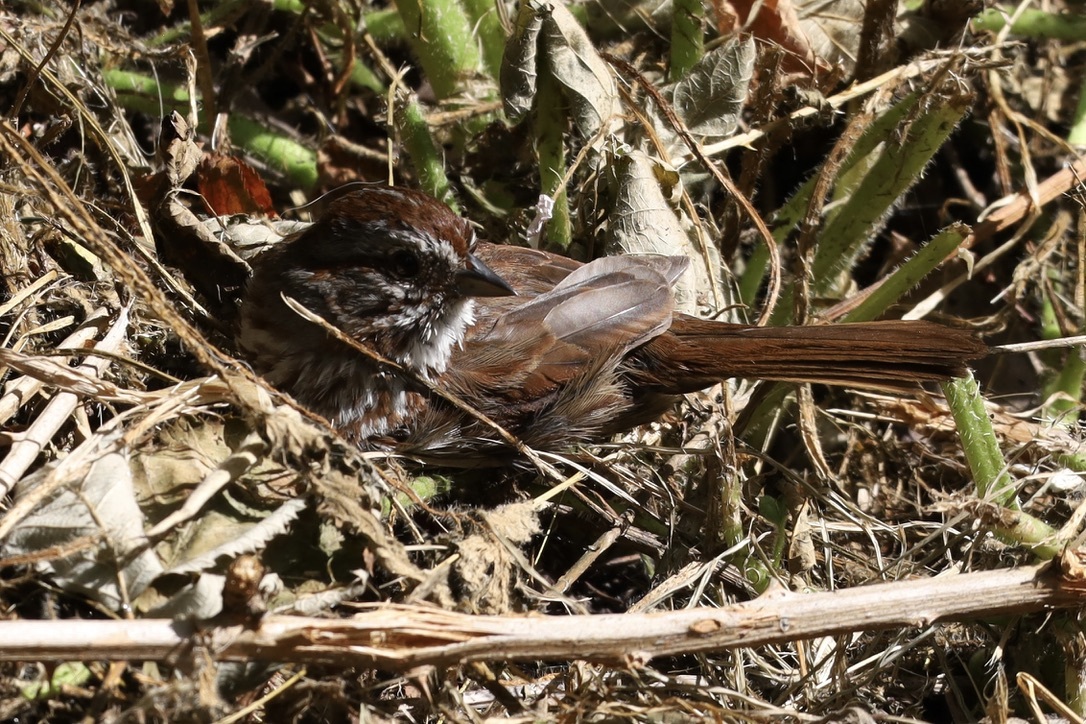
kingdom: Animalia
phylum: Chordata
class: Aves
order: Passeriformes
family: Passerellidae
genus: Melospiza
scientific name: Melospiza melodia
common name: Song sparrow
